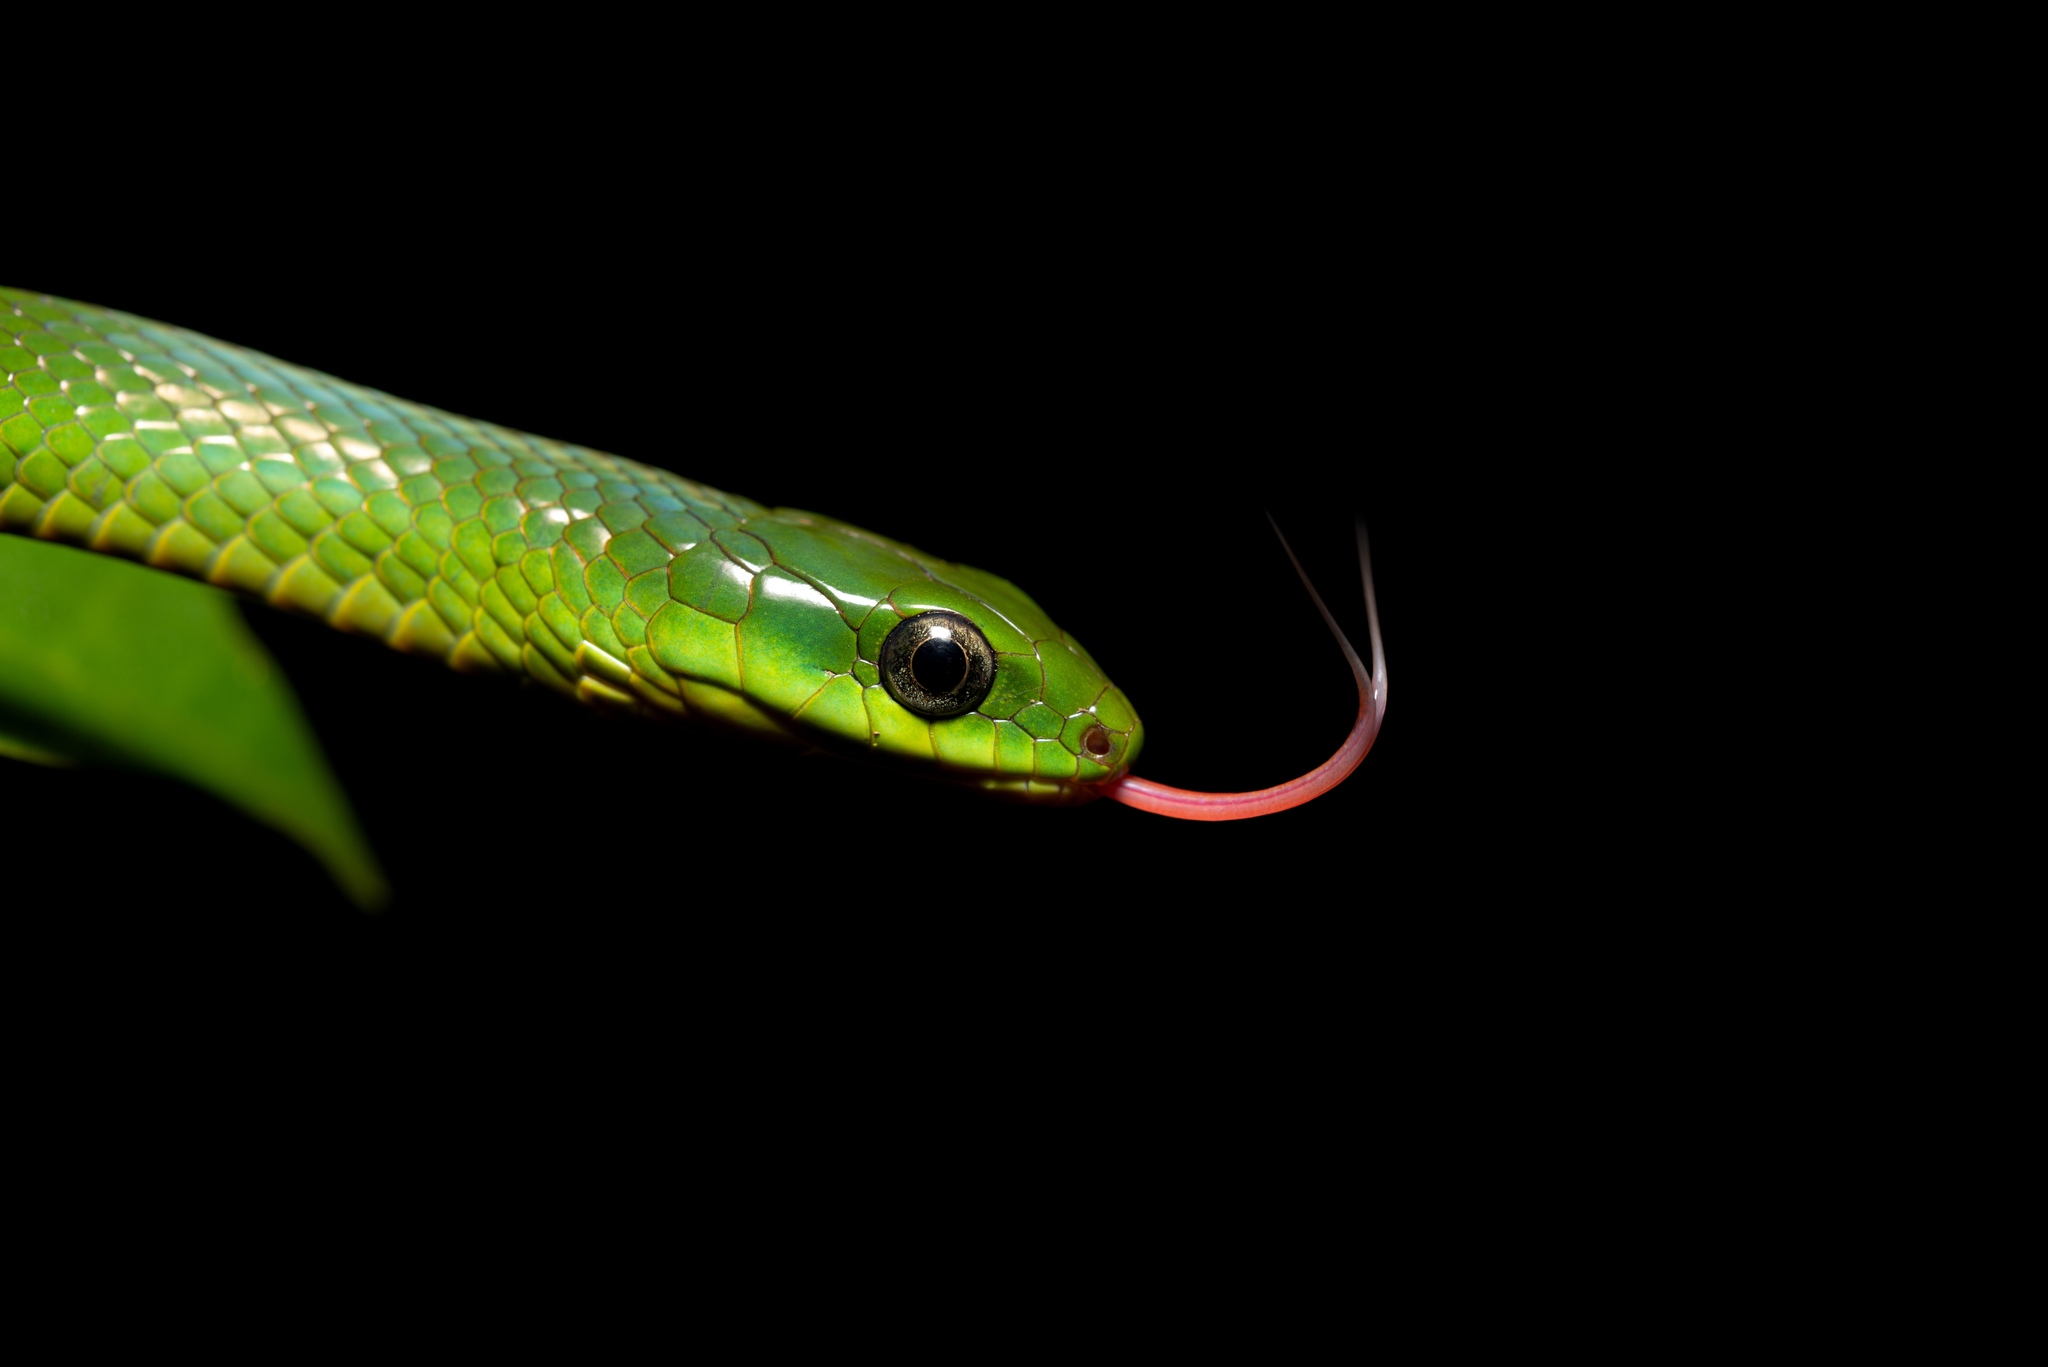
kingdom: Animalia
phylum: Chordata
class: Squamata
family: Colubridae
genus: Ptyas
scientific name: Ptyas major
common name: Chinese green snake
